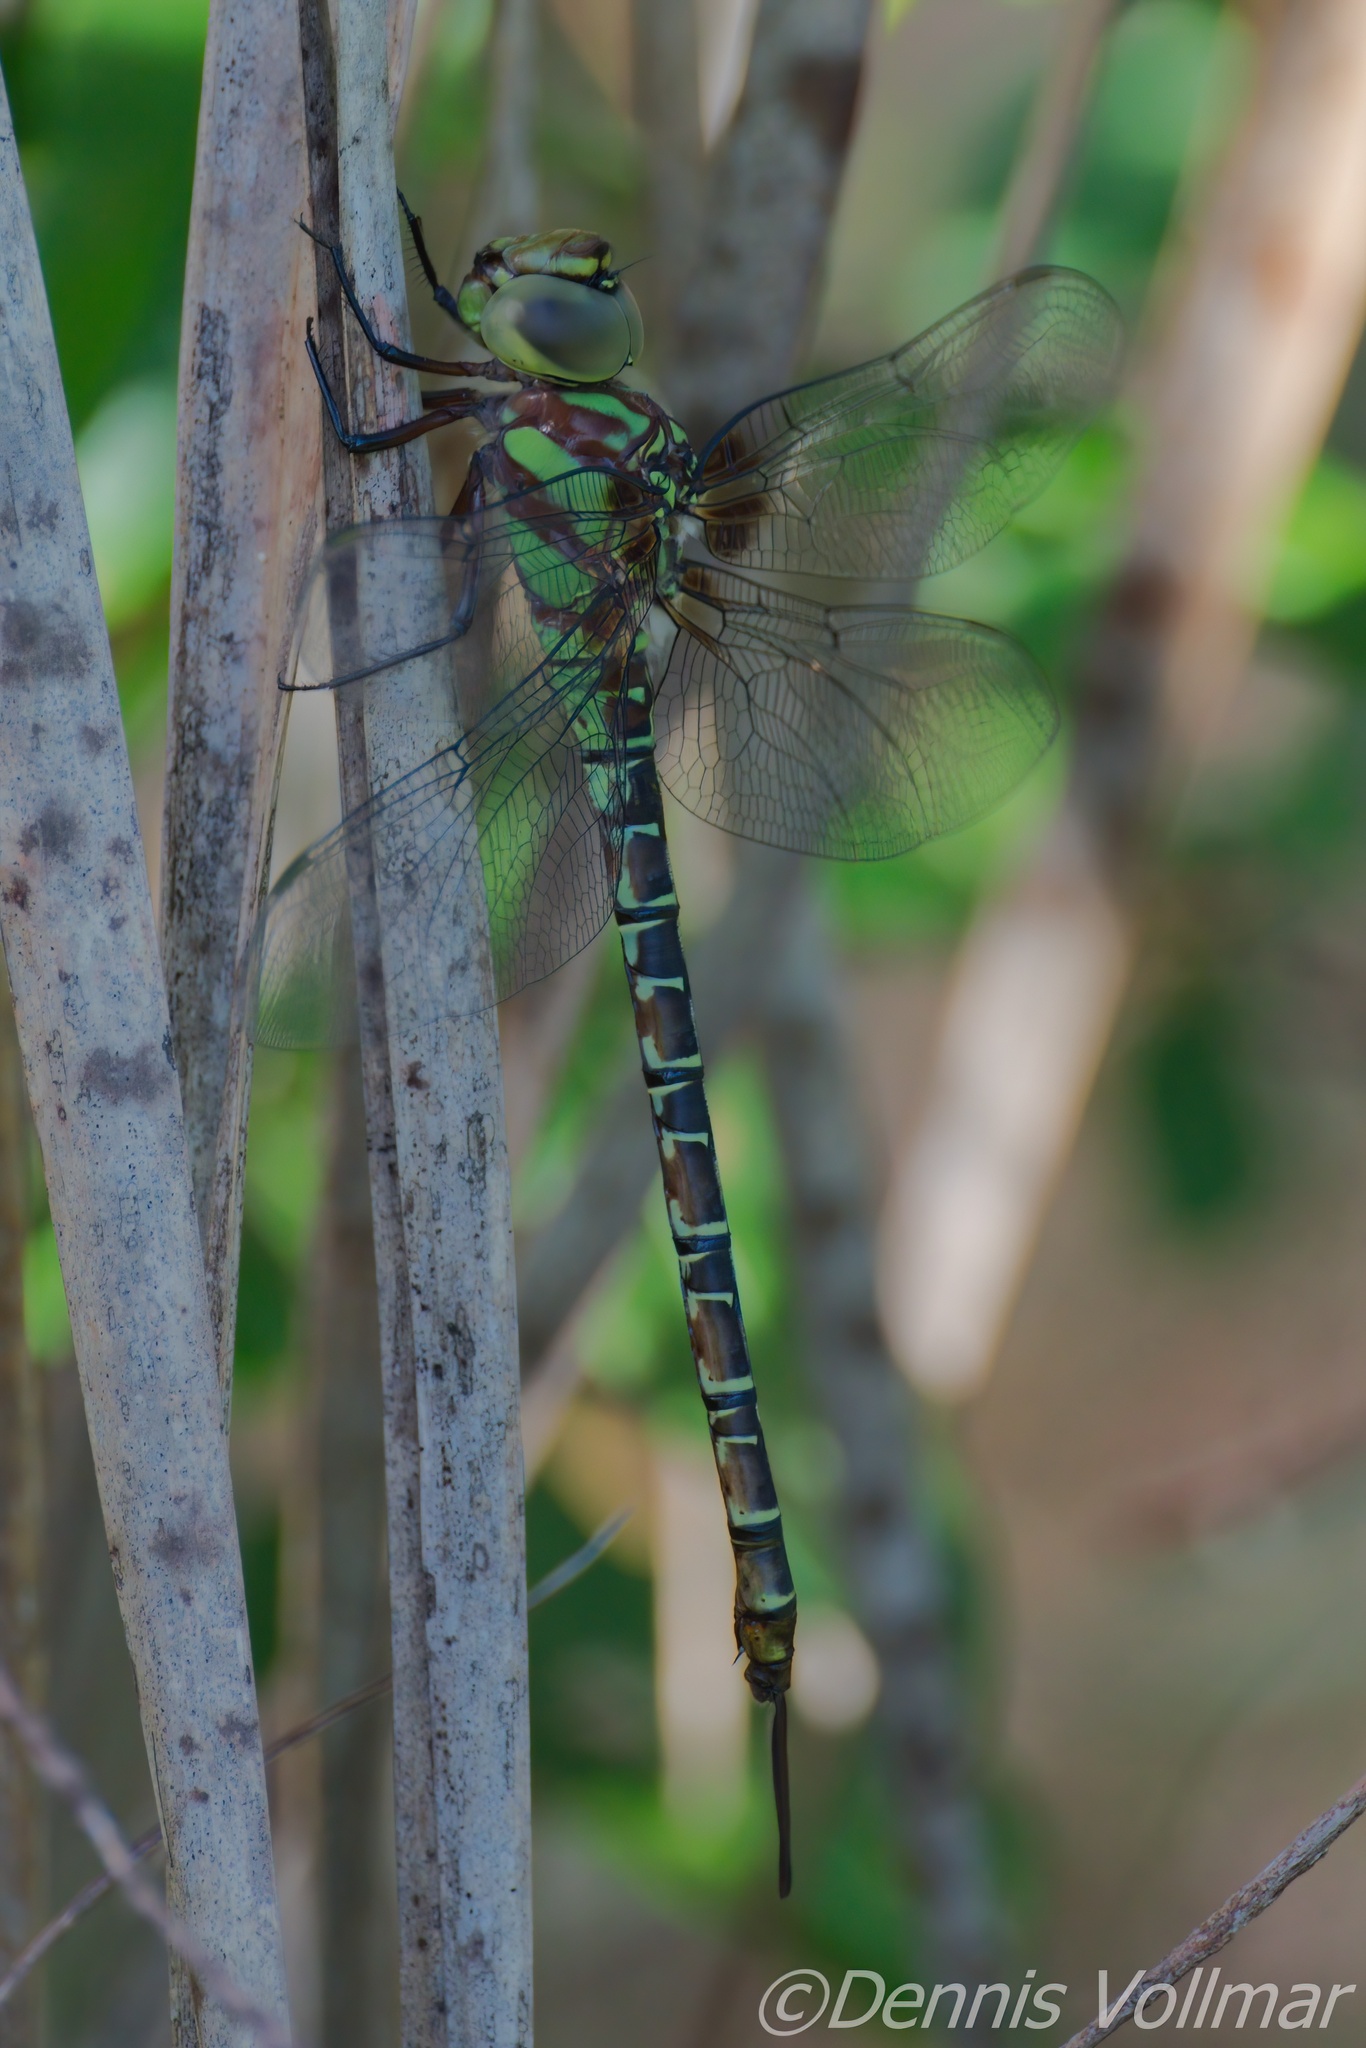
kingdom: Animalia
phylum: Arthropoda
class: Insecta
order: Odonata
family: Aeshnidae
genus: Coryphaeschna
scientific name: Coryphaeschna ingens
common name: Regal darner
